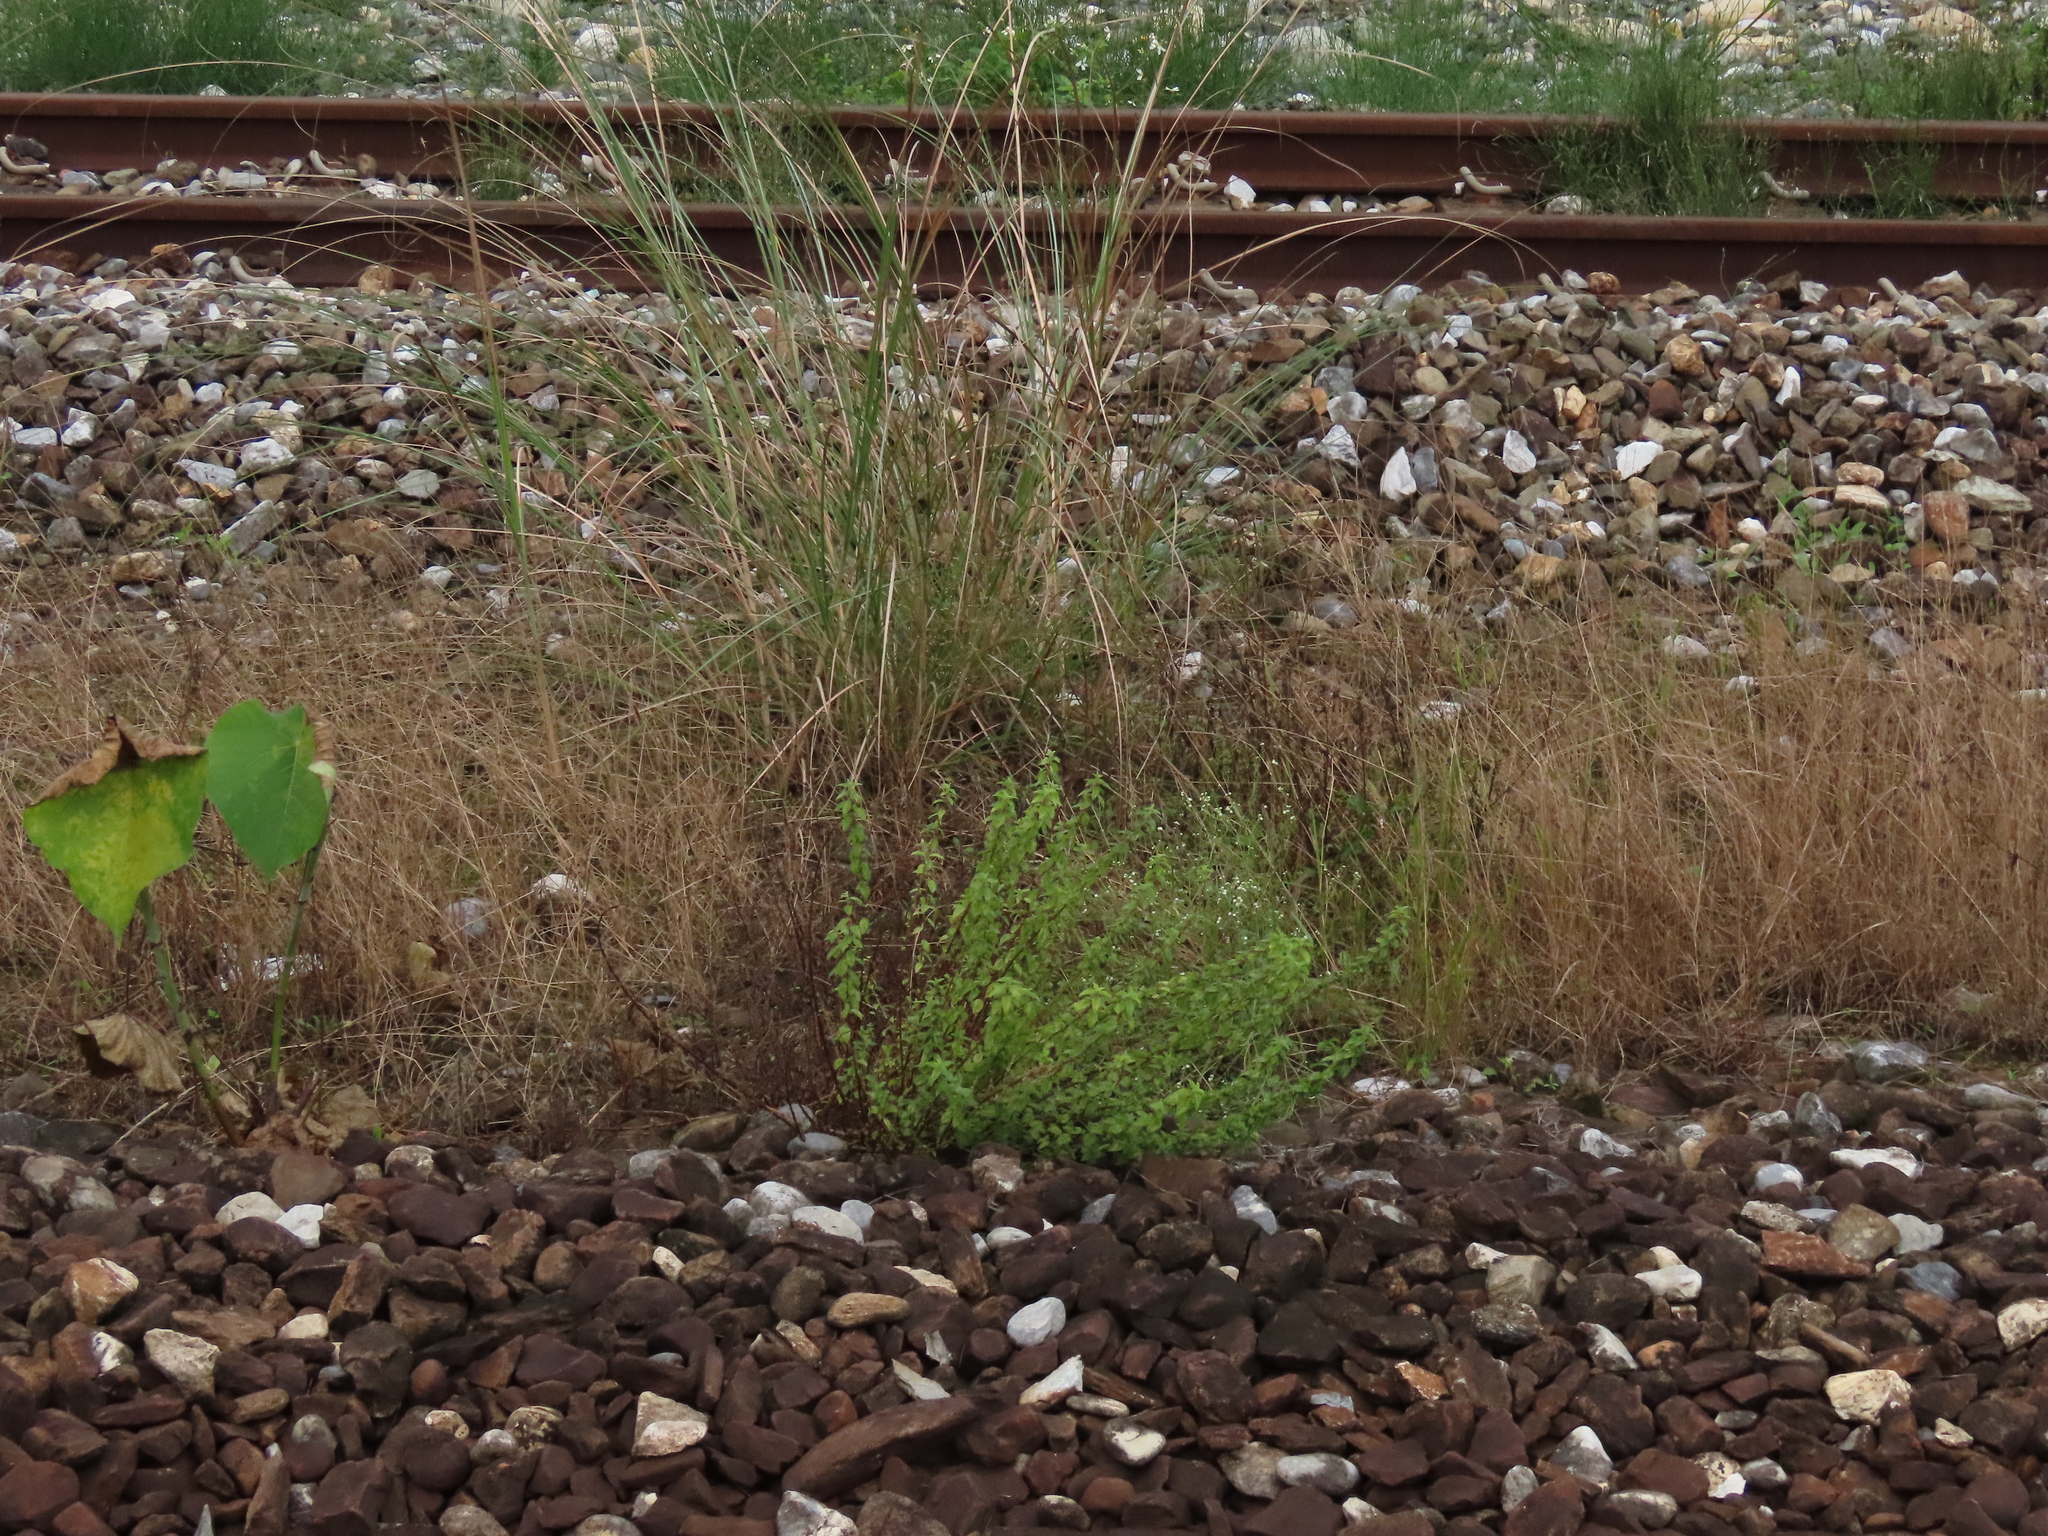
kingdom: Plantae
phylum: Tracheophyta
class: Magnoliopsida
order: Rosales
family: Urticaceae
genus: Pouzolzia
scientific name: Pouzolzia zeylanica
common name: Graceful pouzolzsbush
